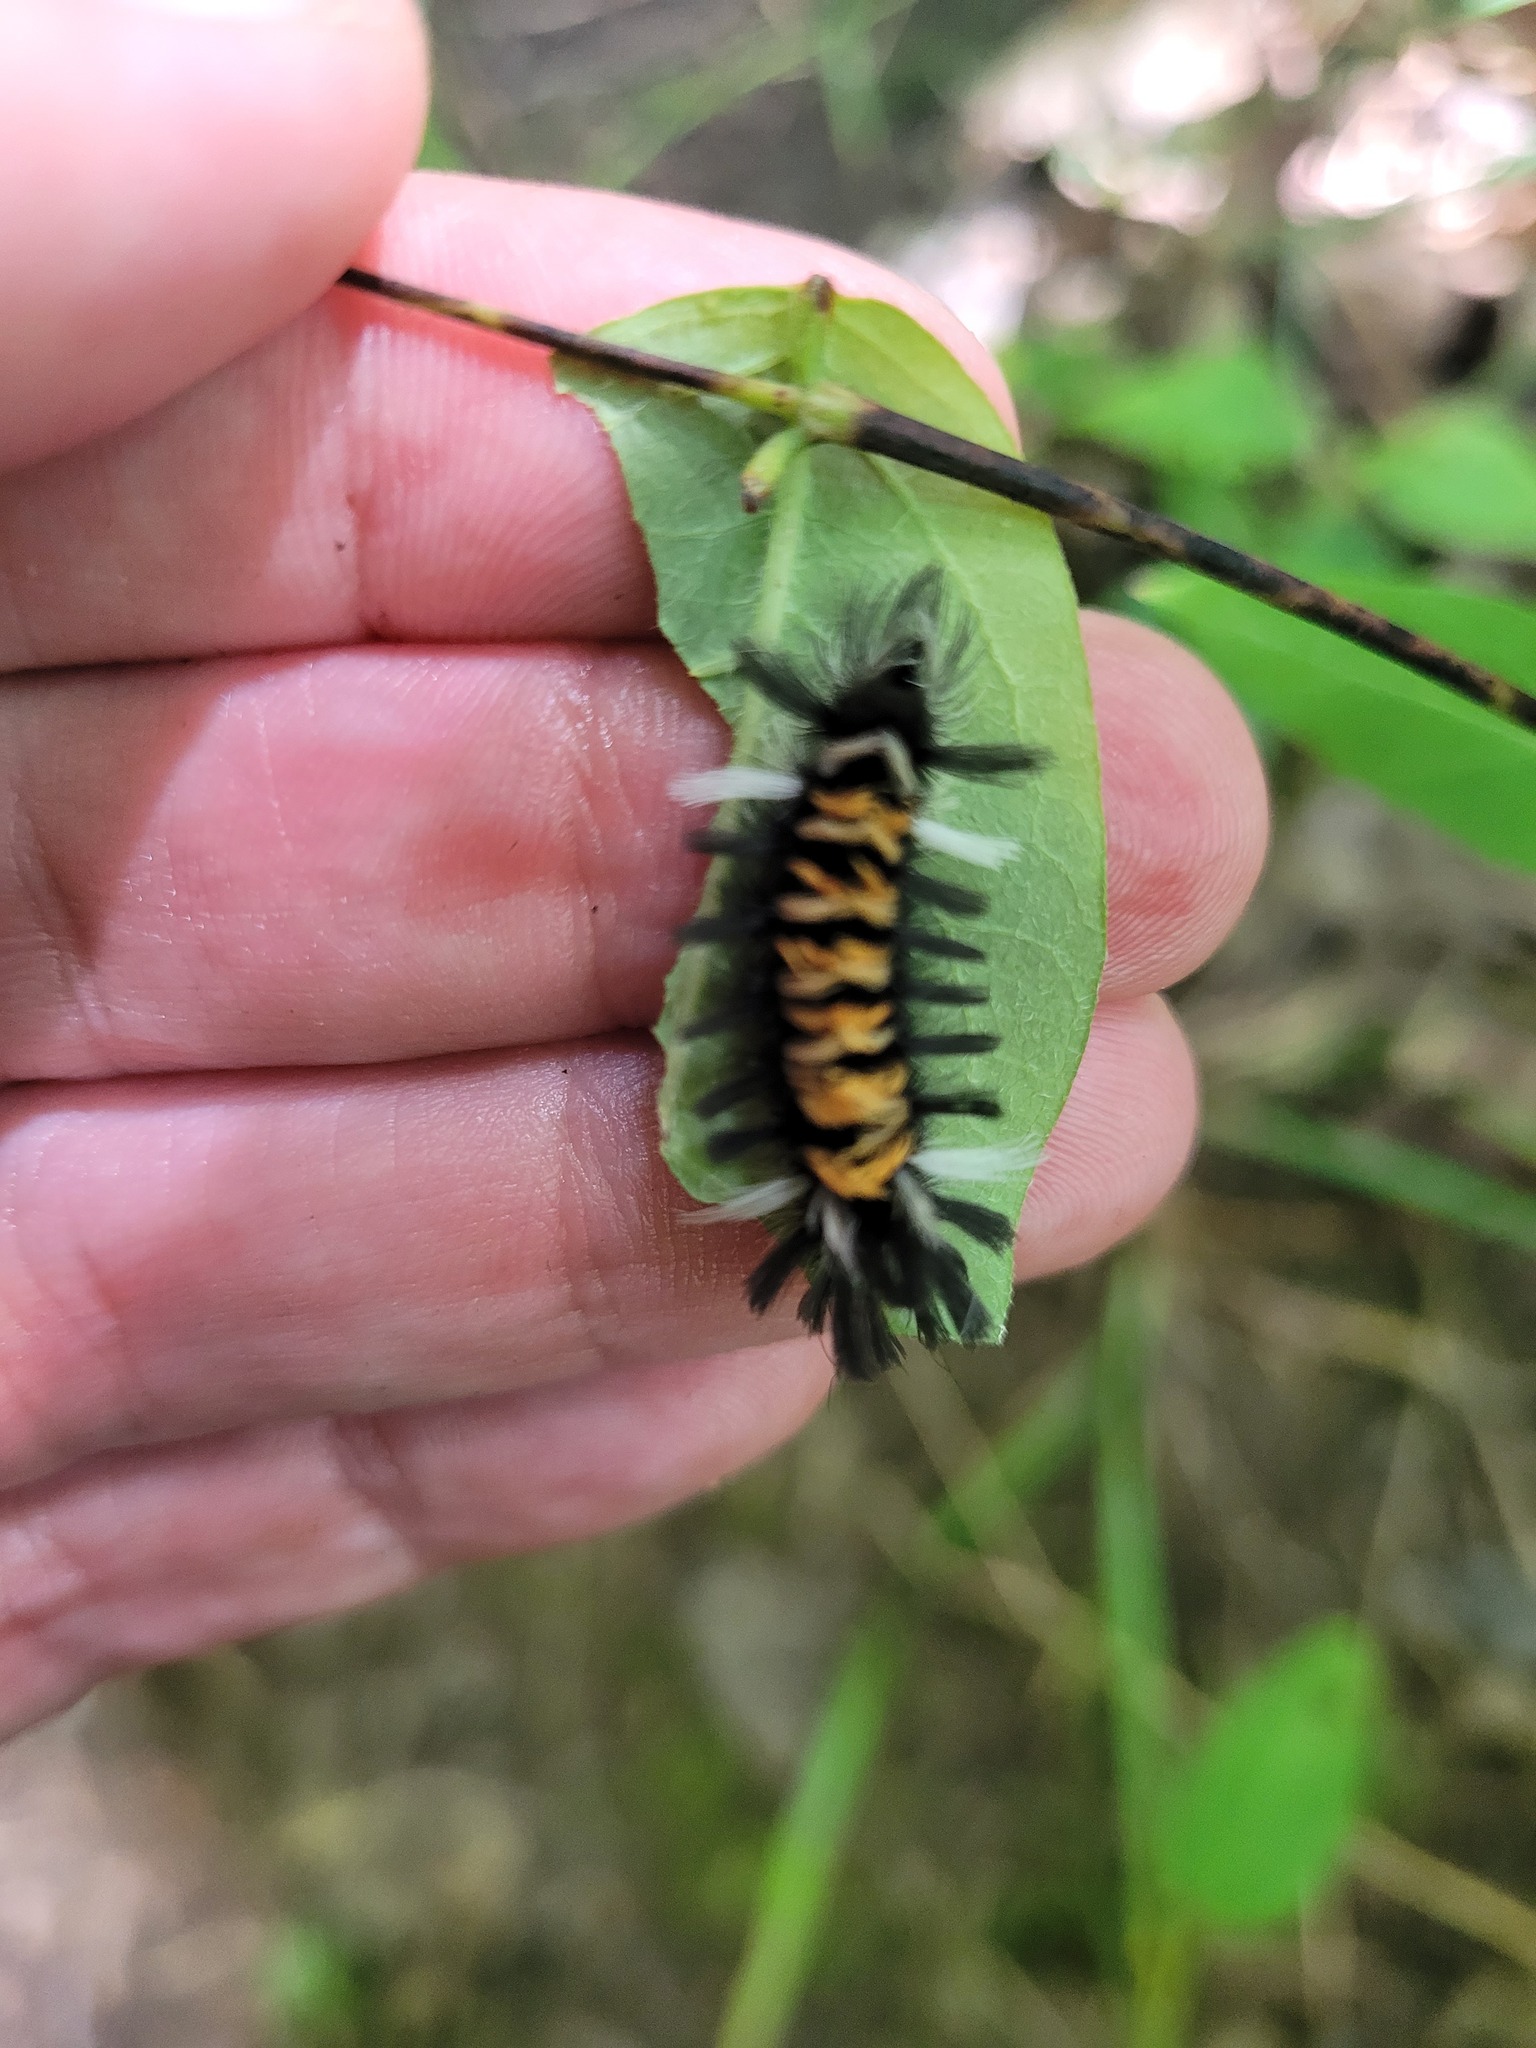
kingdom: Animalia
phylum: Arthropoda
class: Insecta
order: Lepidoptera
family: Erebidae
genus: Euchaetes
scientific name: Euchaetes egle
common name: Milkweed tussock moth
